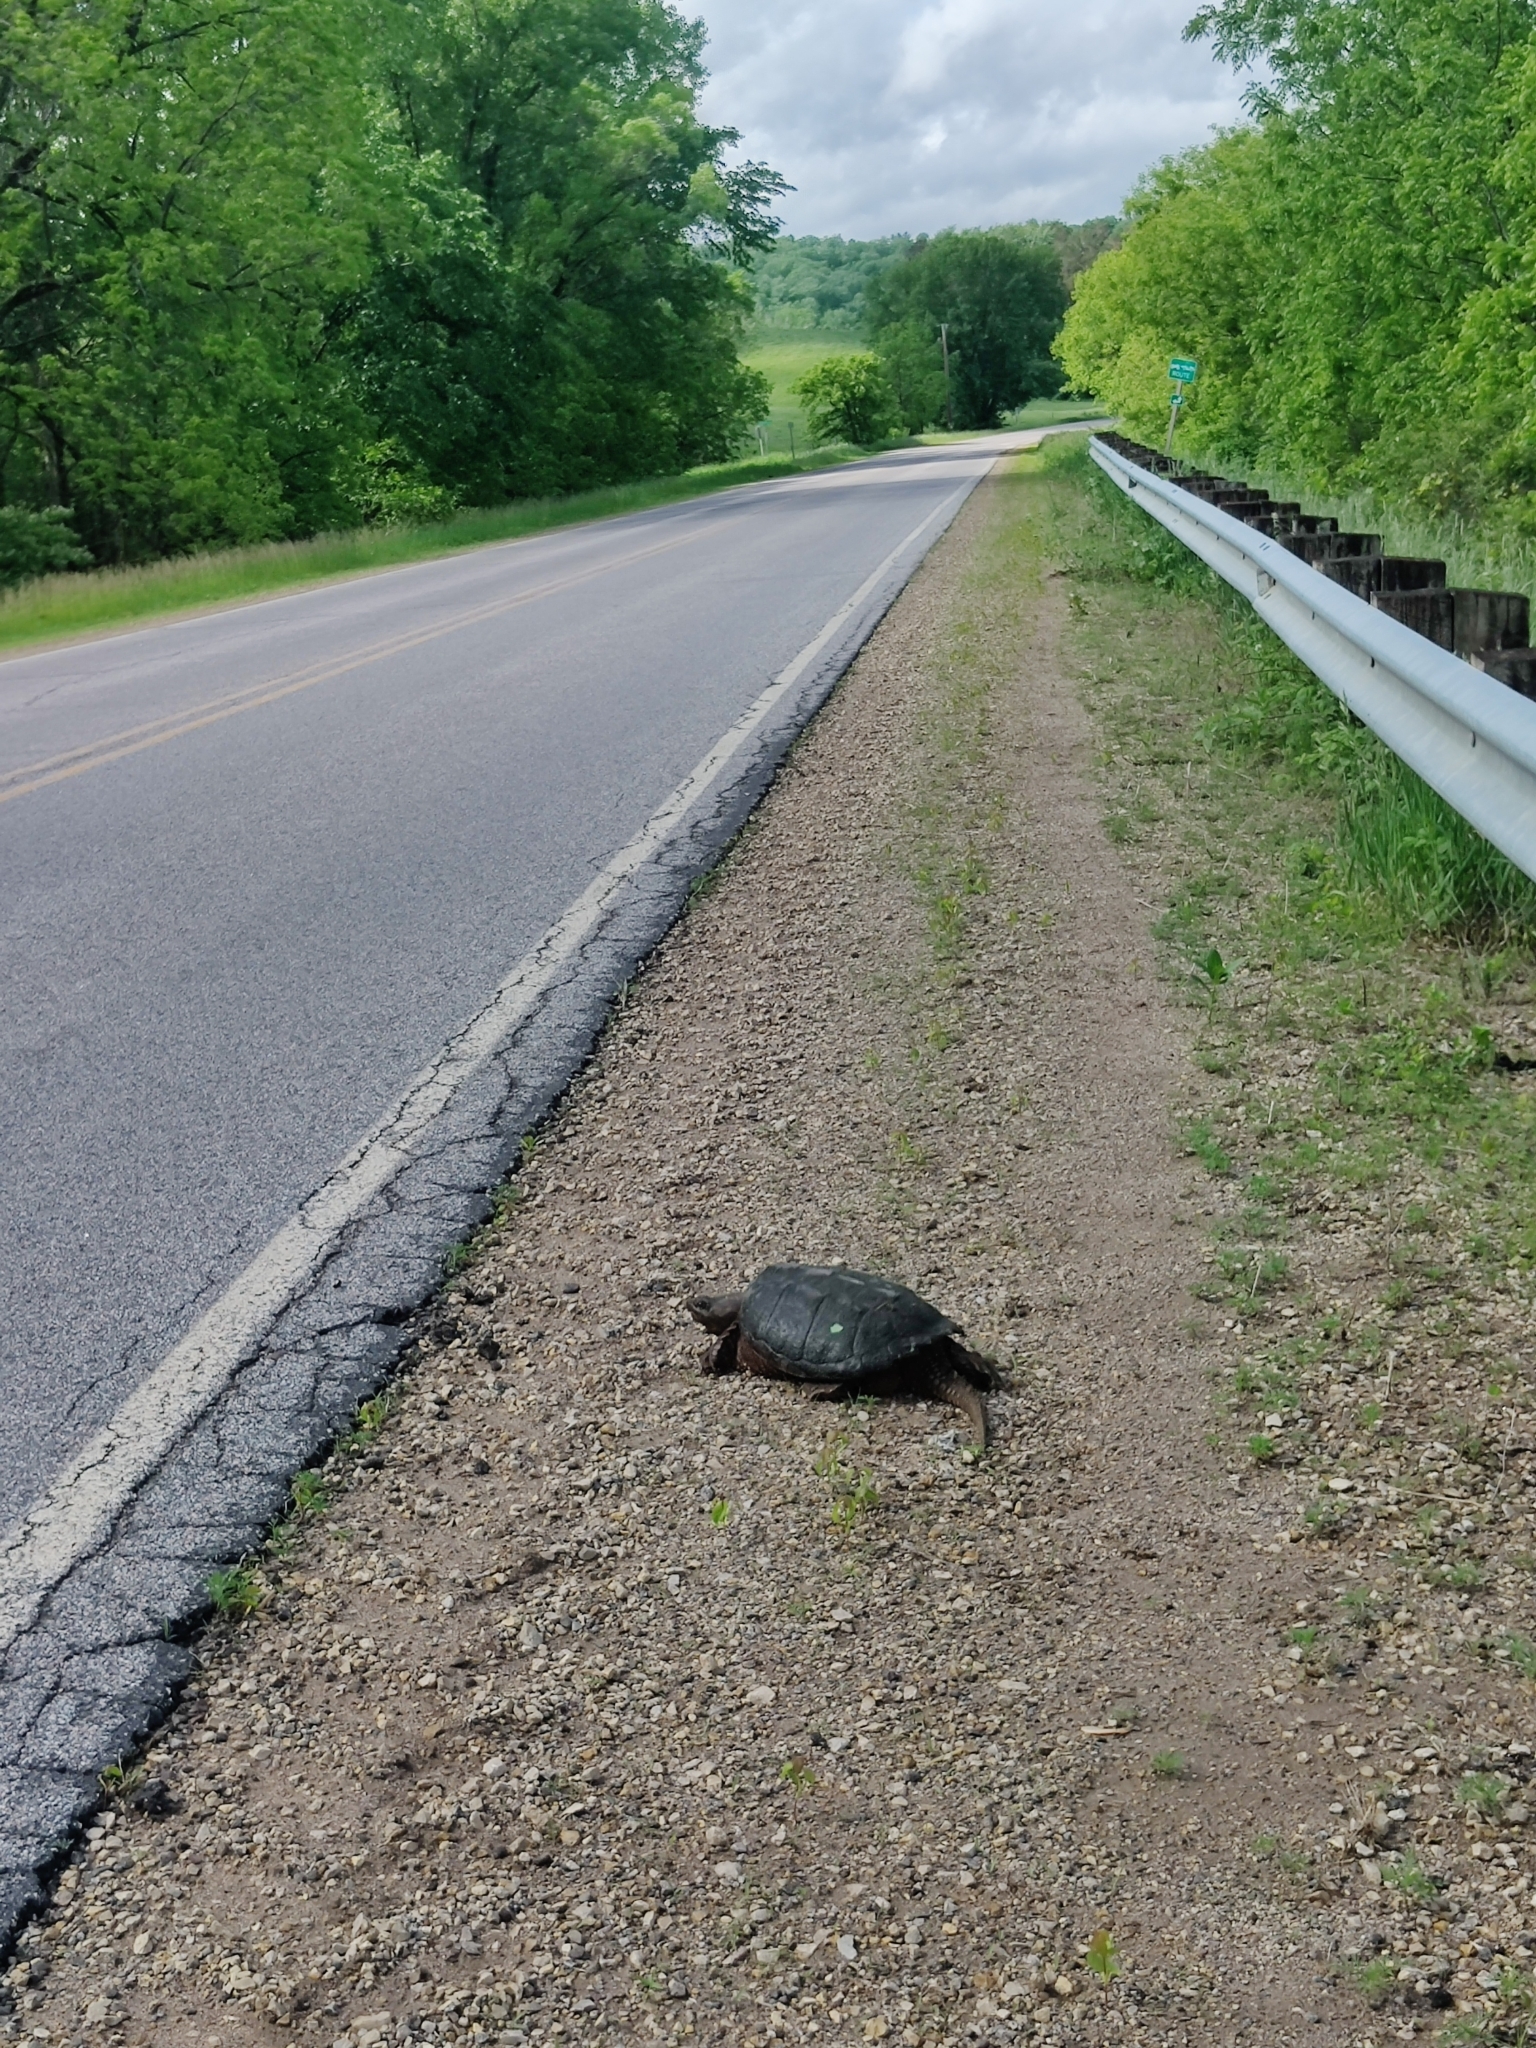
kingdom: Animalia
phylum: Chordata
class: Testudines
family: Chelydridae
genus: Chelydra
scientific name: Chelydra serpentina
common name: Common snapping turtle
